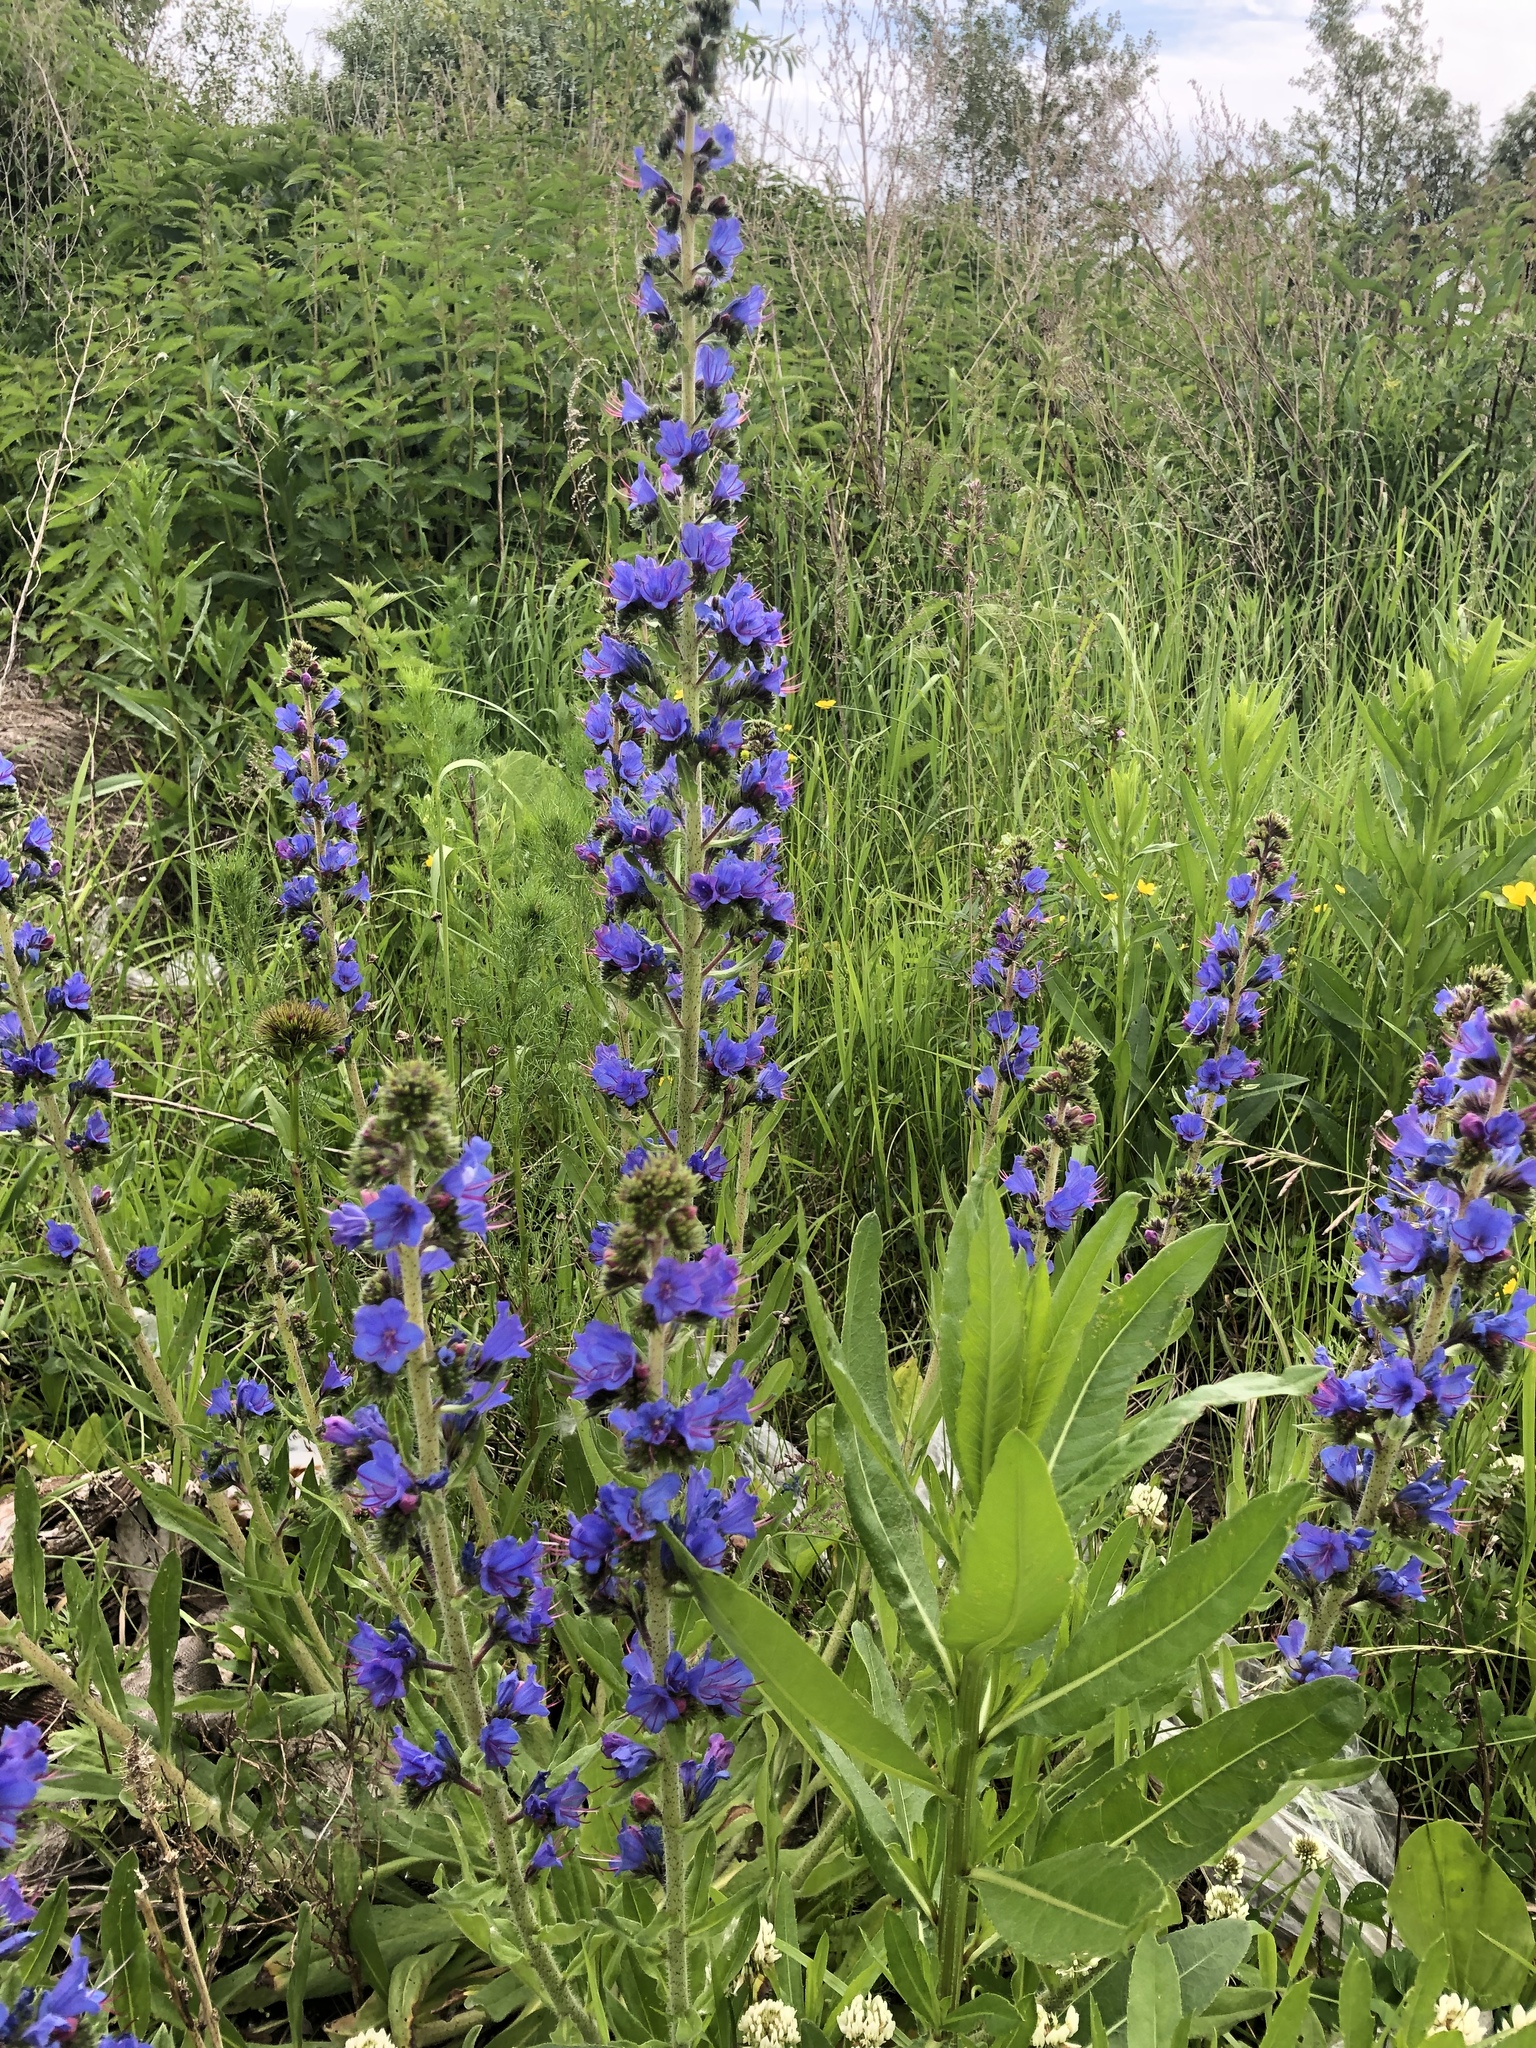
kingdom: Plantae
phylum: Tracheophyta
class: Magnoliopsida
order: Boraginales
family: Boraginaceae
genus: Echium
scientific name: Echium vulgare
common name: Common viper's bugloss
